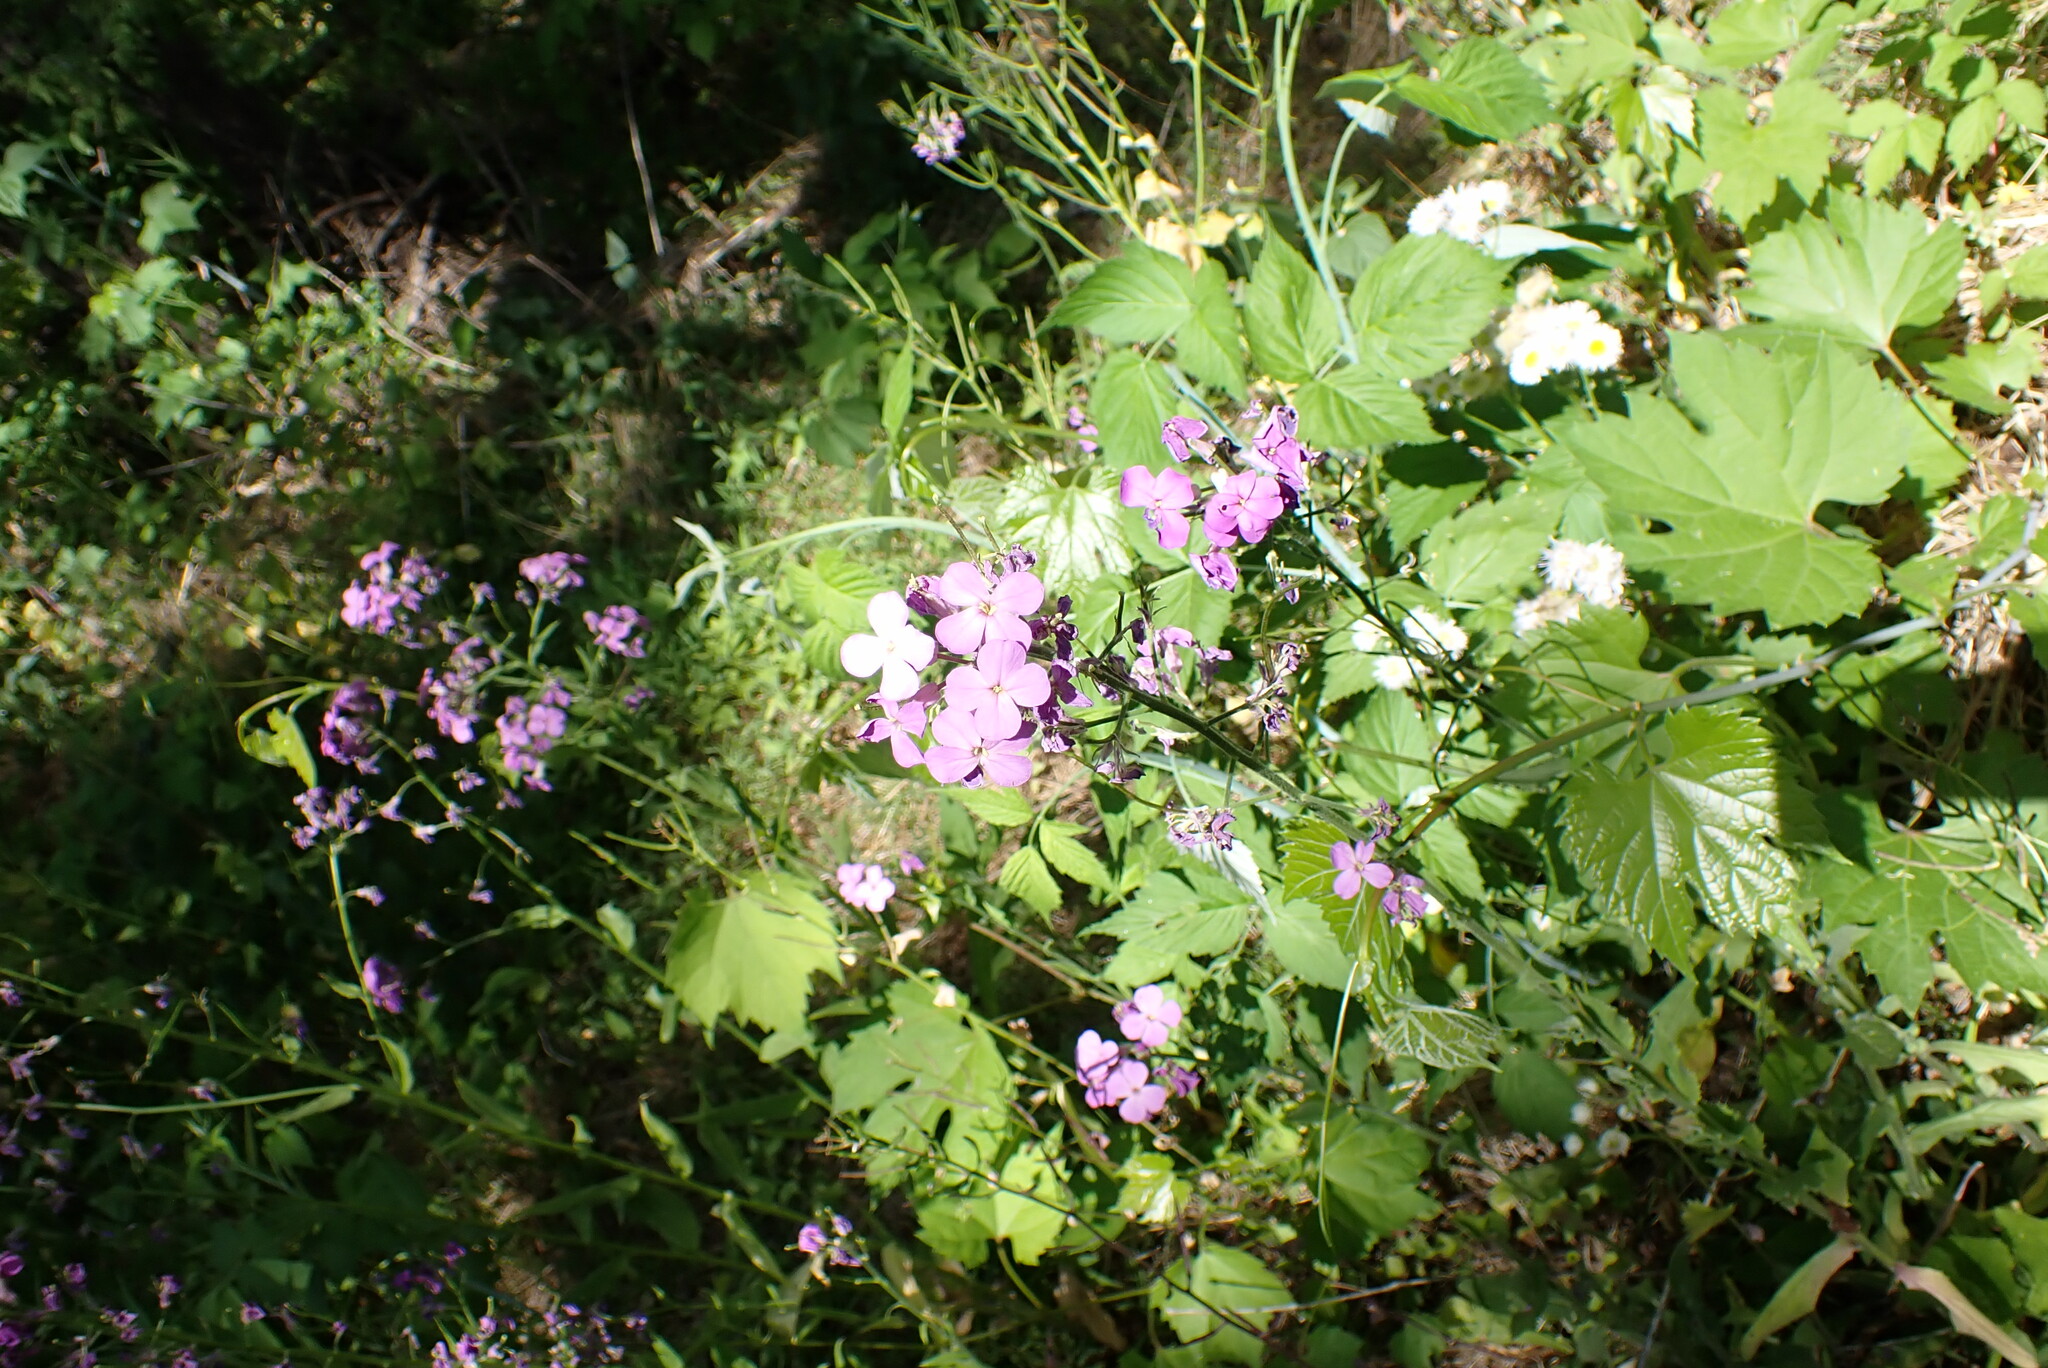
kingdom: Plantae
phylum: Tracheophyta
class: Magnoliopsida
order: Brassicales
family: Brassicaceae
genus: Hesperis
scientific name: Hesperis matronalis
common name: Dame's-violet
